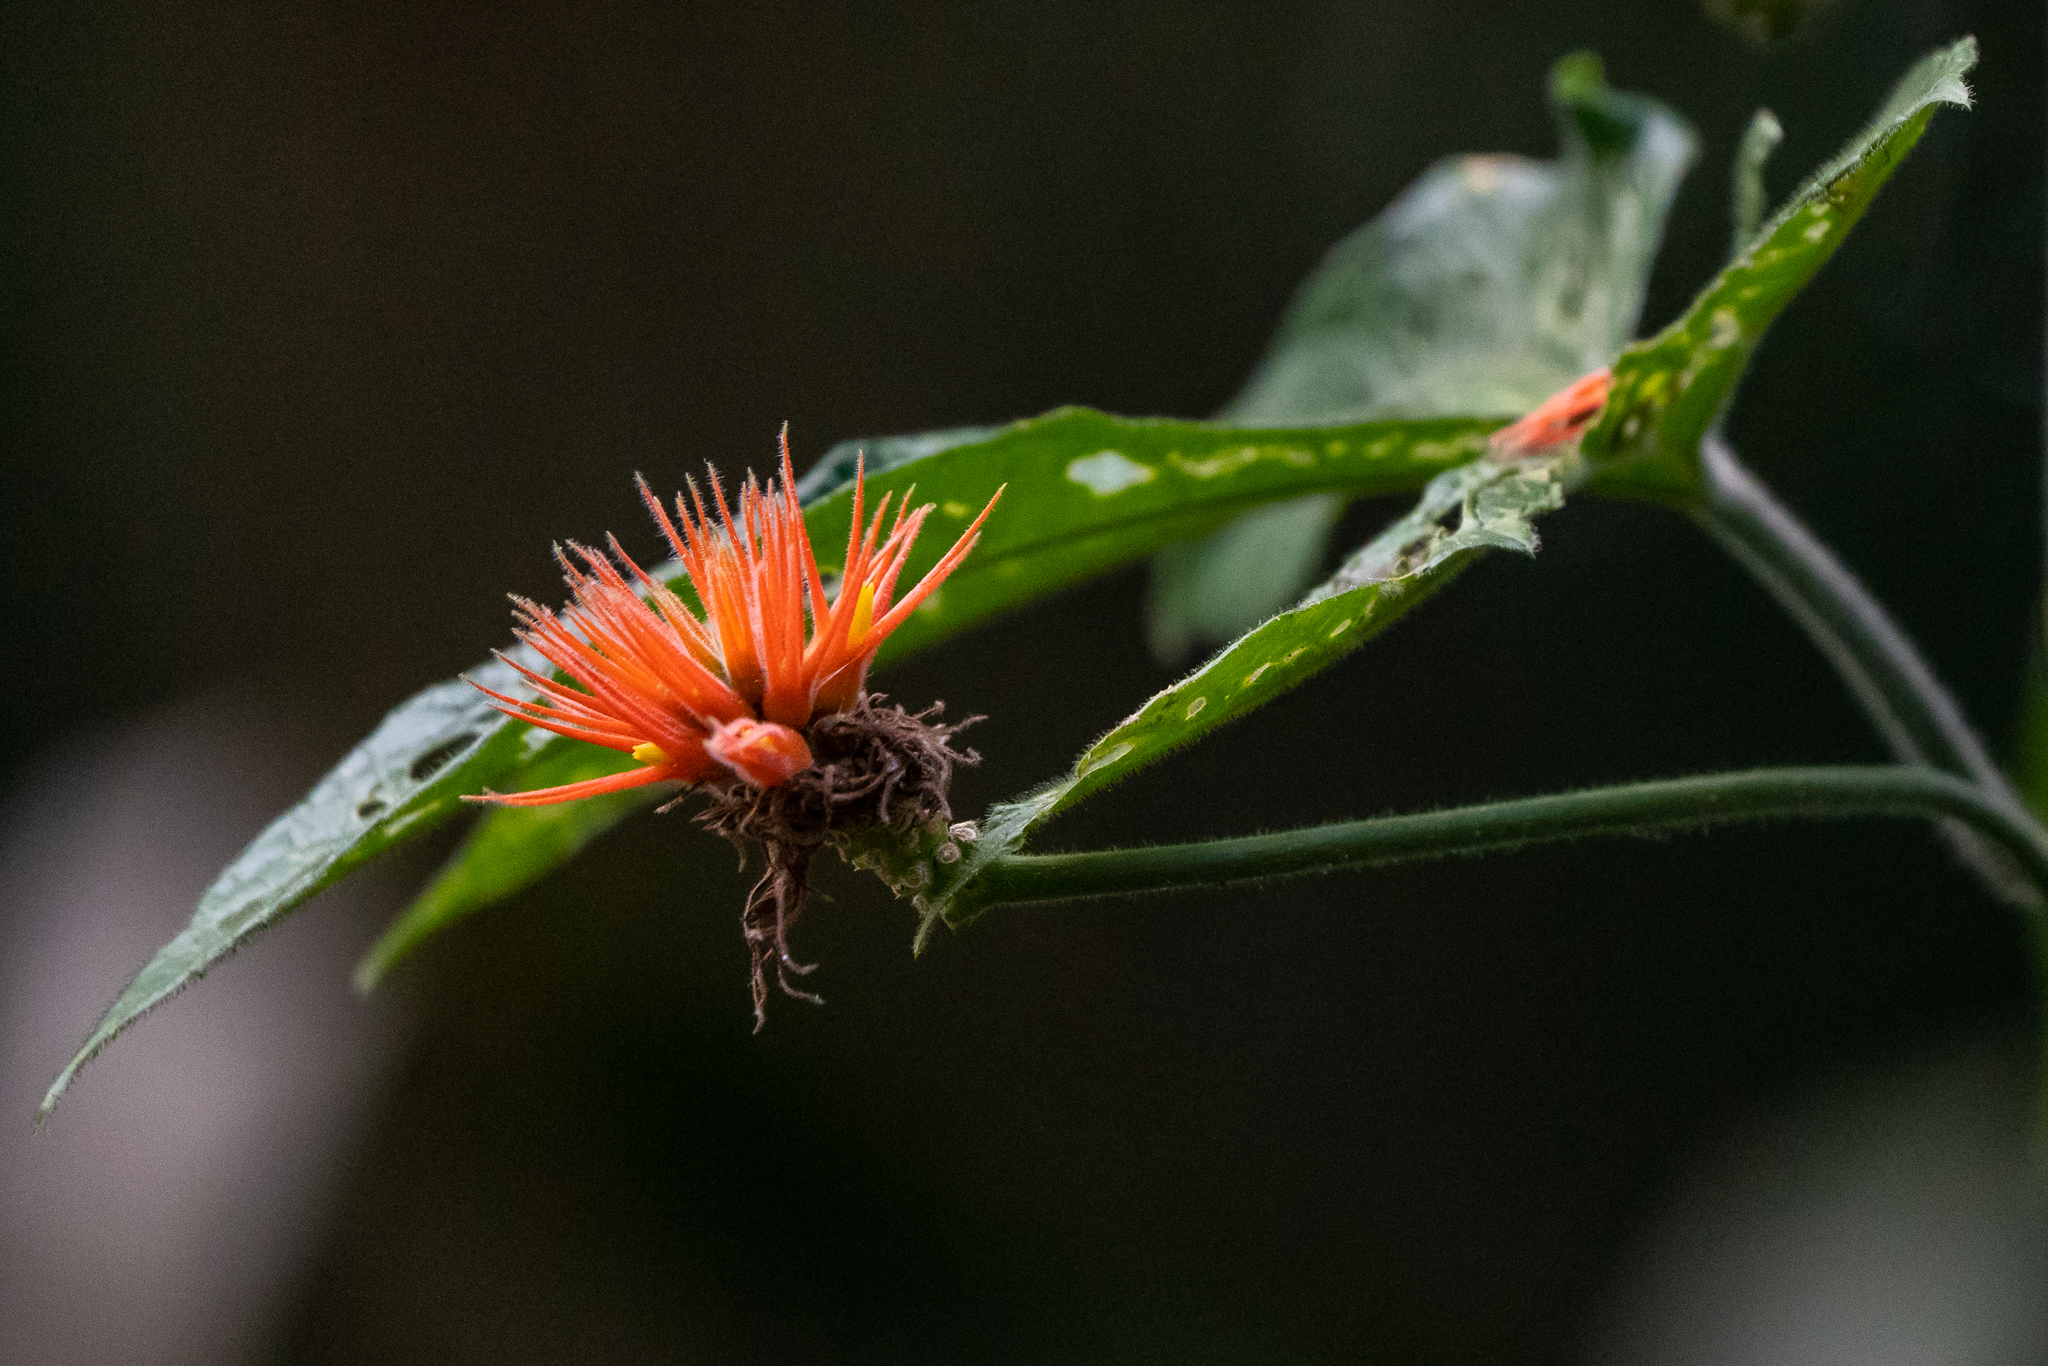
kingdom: Plantae
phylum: Tracheophyta
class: Magnoliopsida
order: Cucurbitales
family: Cucurbitaceae
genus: Gurania
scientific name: Gurania makoyana
